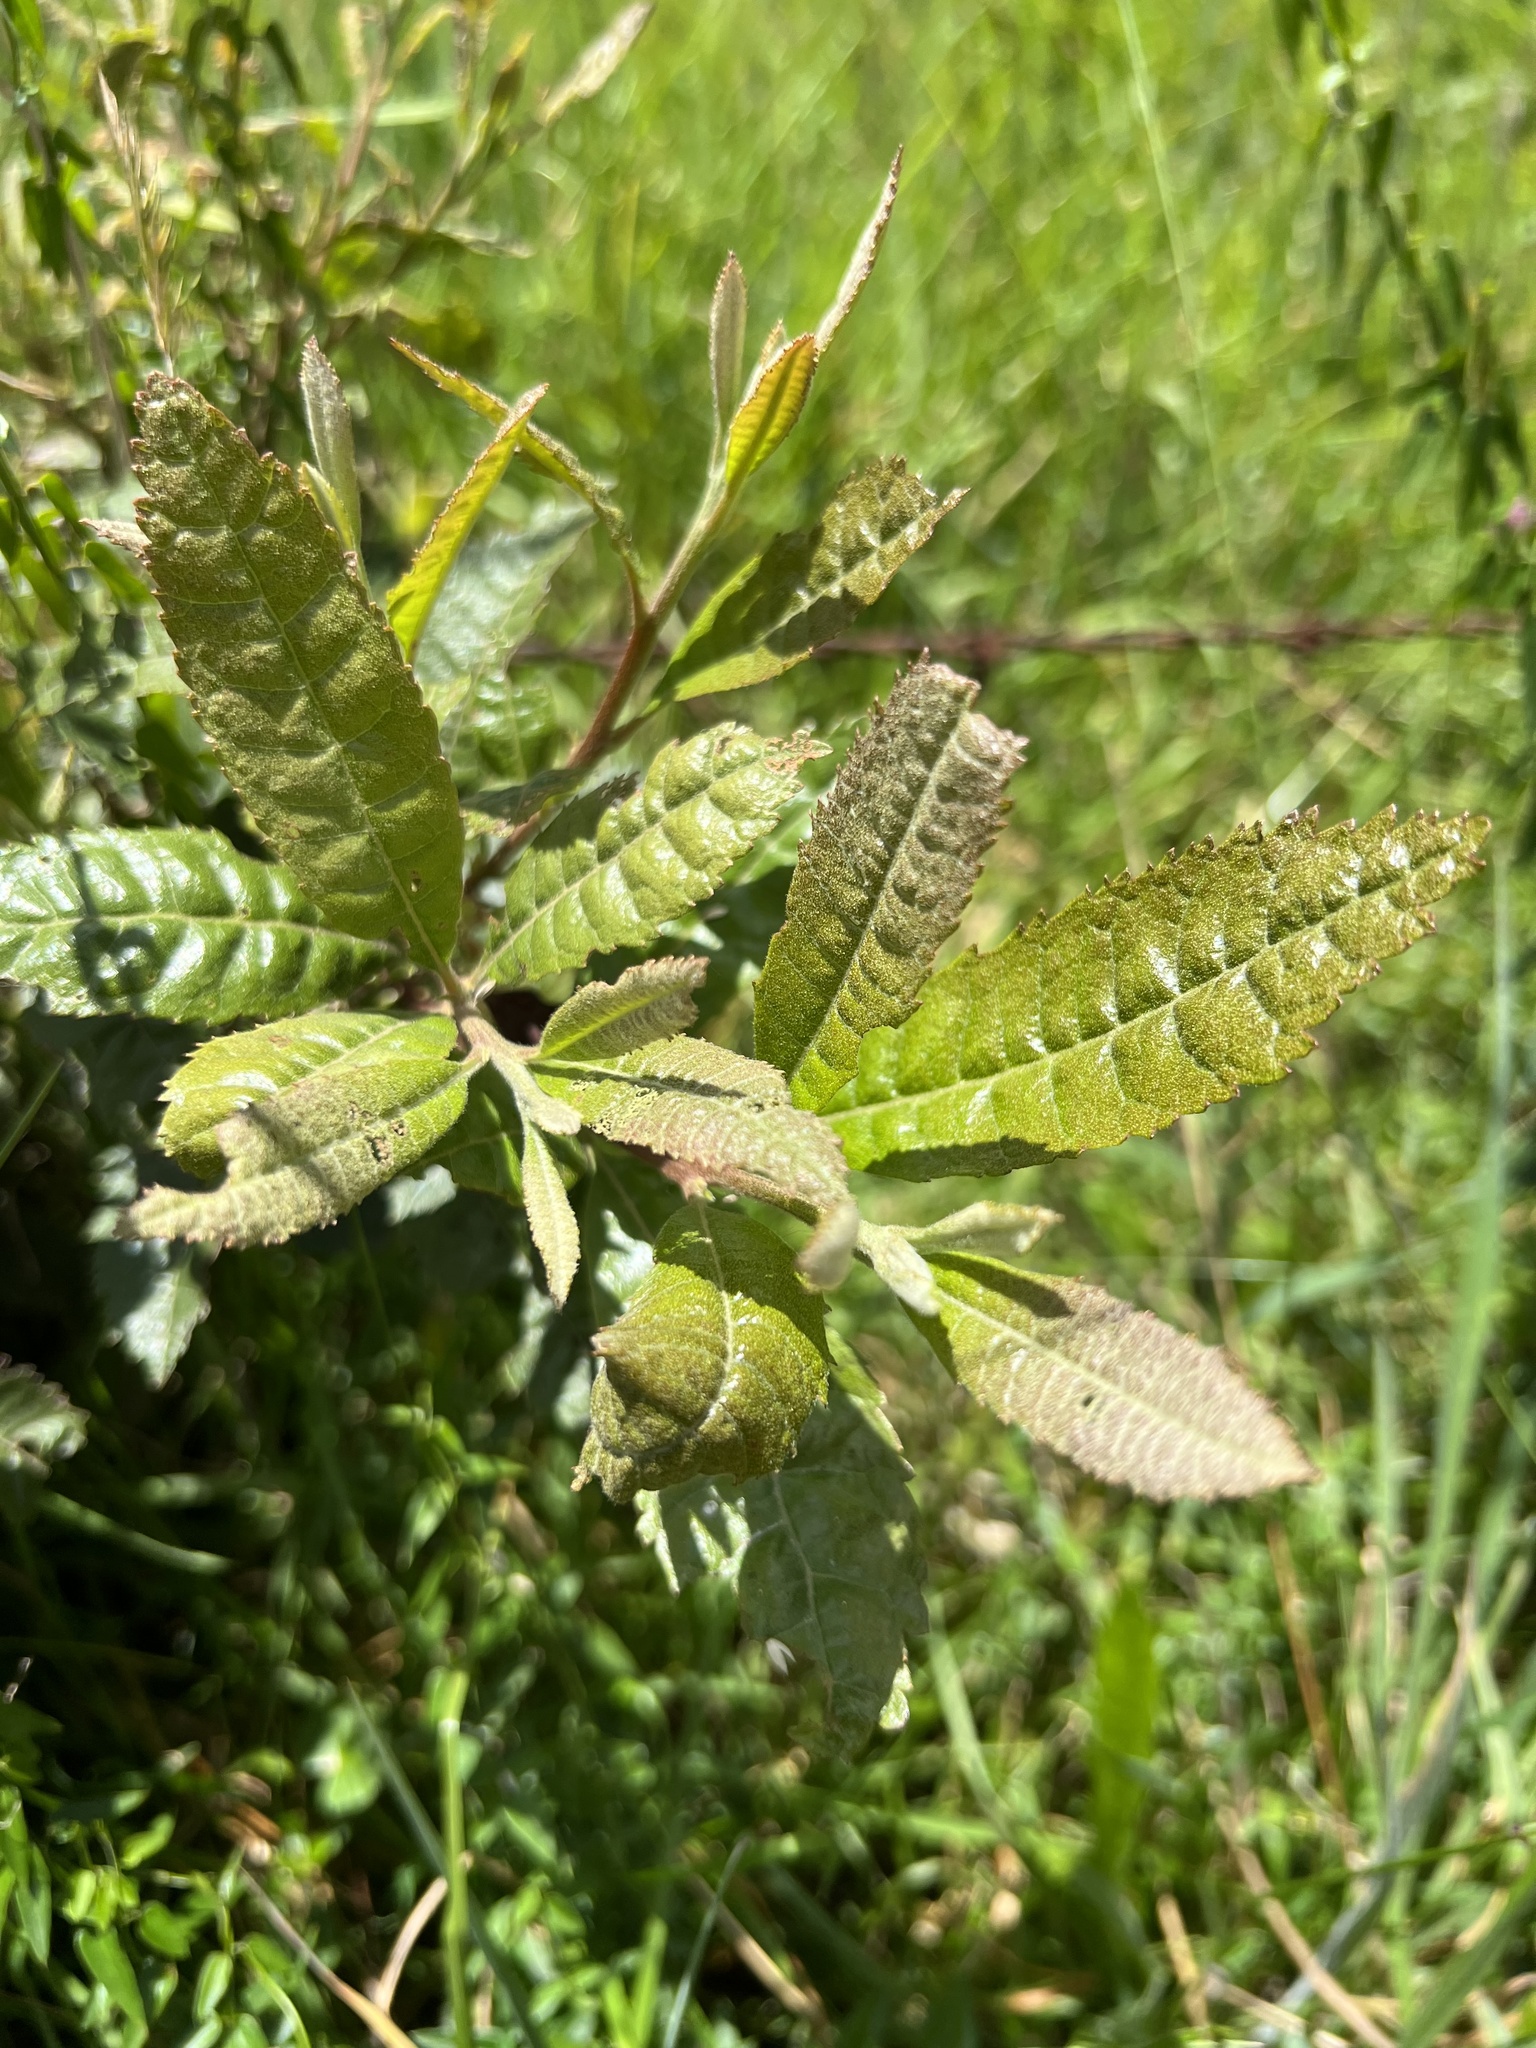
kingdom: Plantae
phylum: Tracheophyta
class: Magnoliopsida
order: Fagales
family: Myricaceae
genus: Morella
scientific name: Morella pubescens
